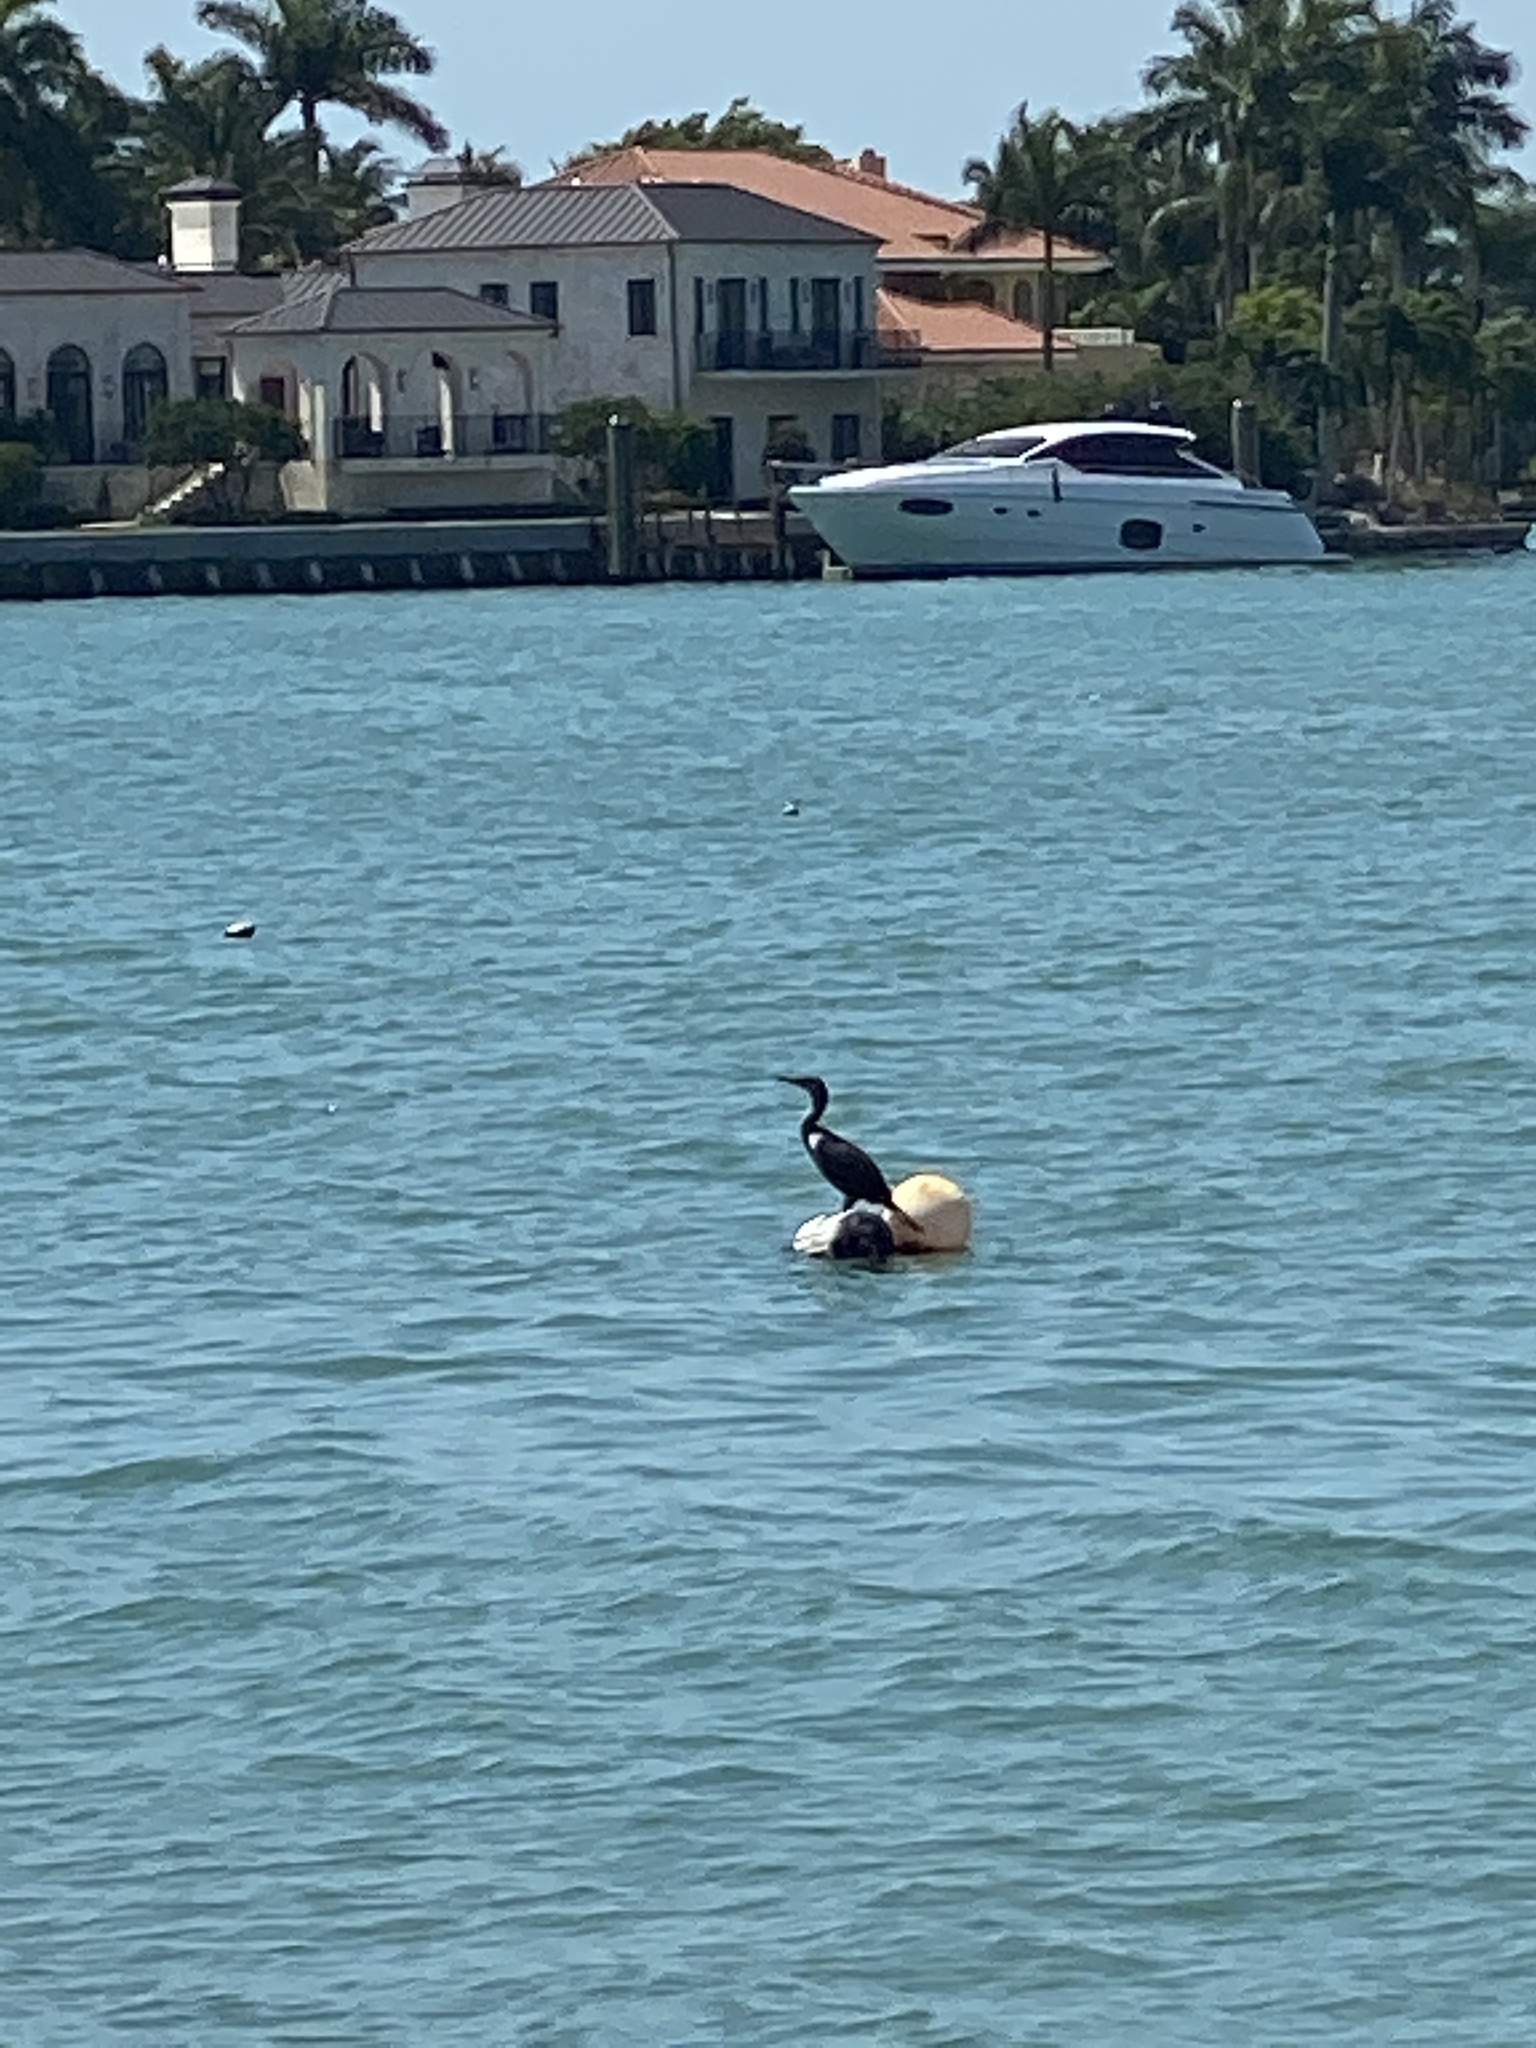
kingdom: Animalia
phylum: Chordata
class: Aves
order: Suliformes
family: Phalacrocoracidae
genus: Phalacrocorax
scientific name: Phalacrocorax auritus
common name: Double-crested cormorant
